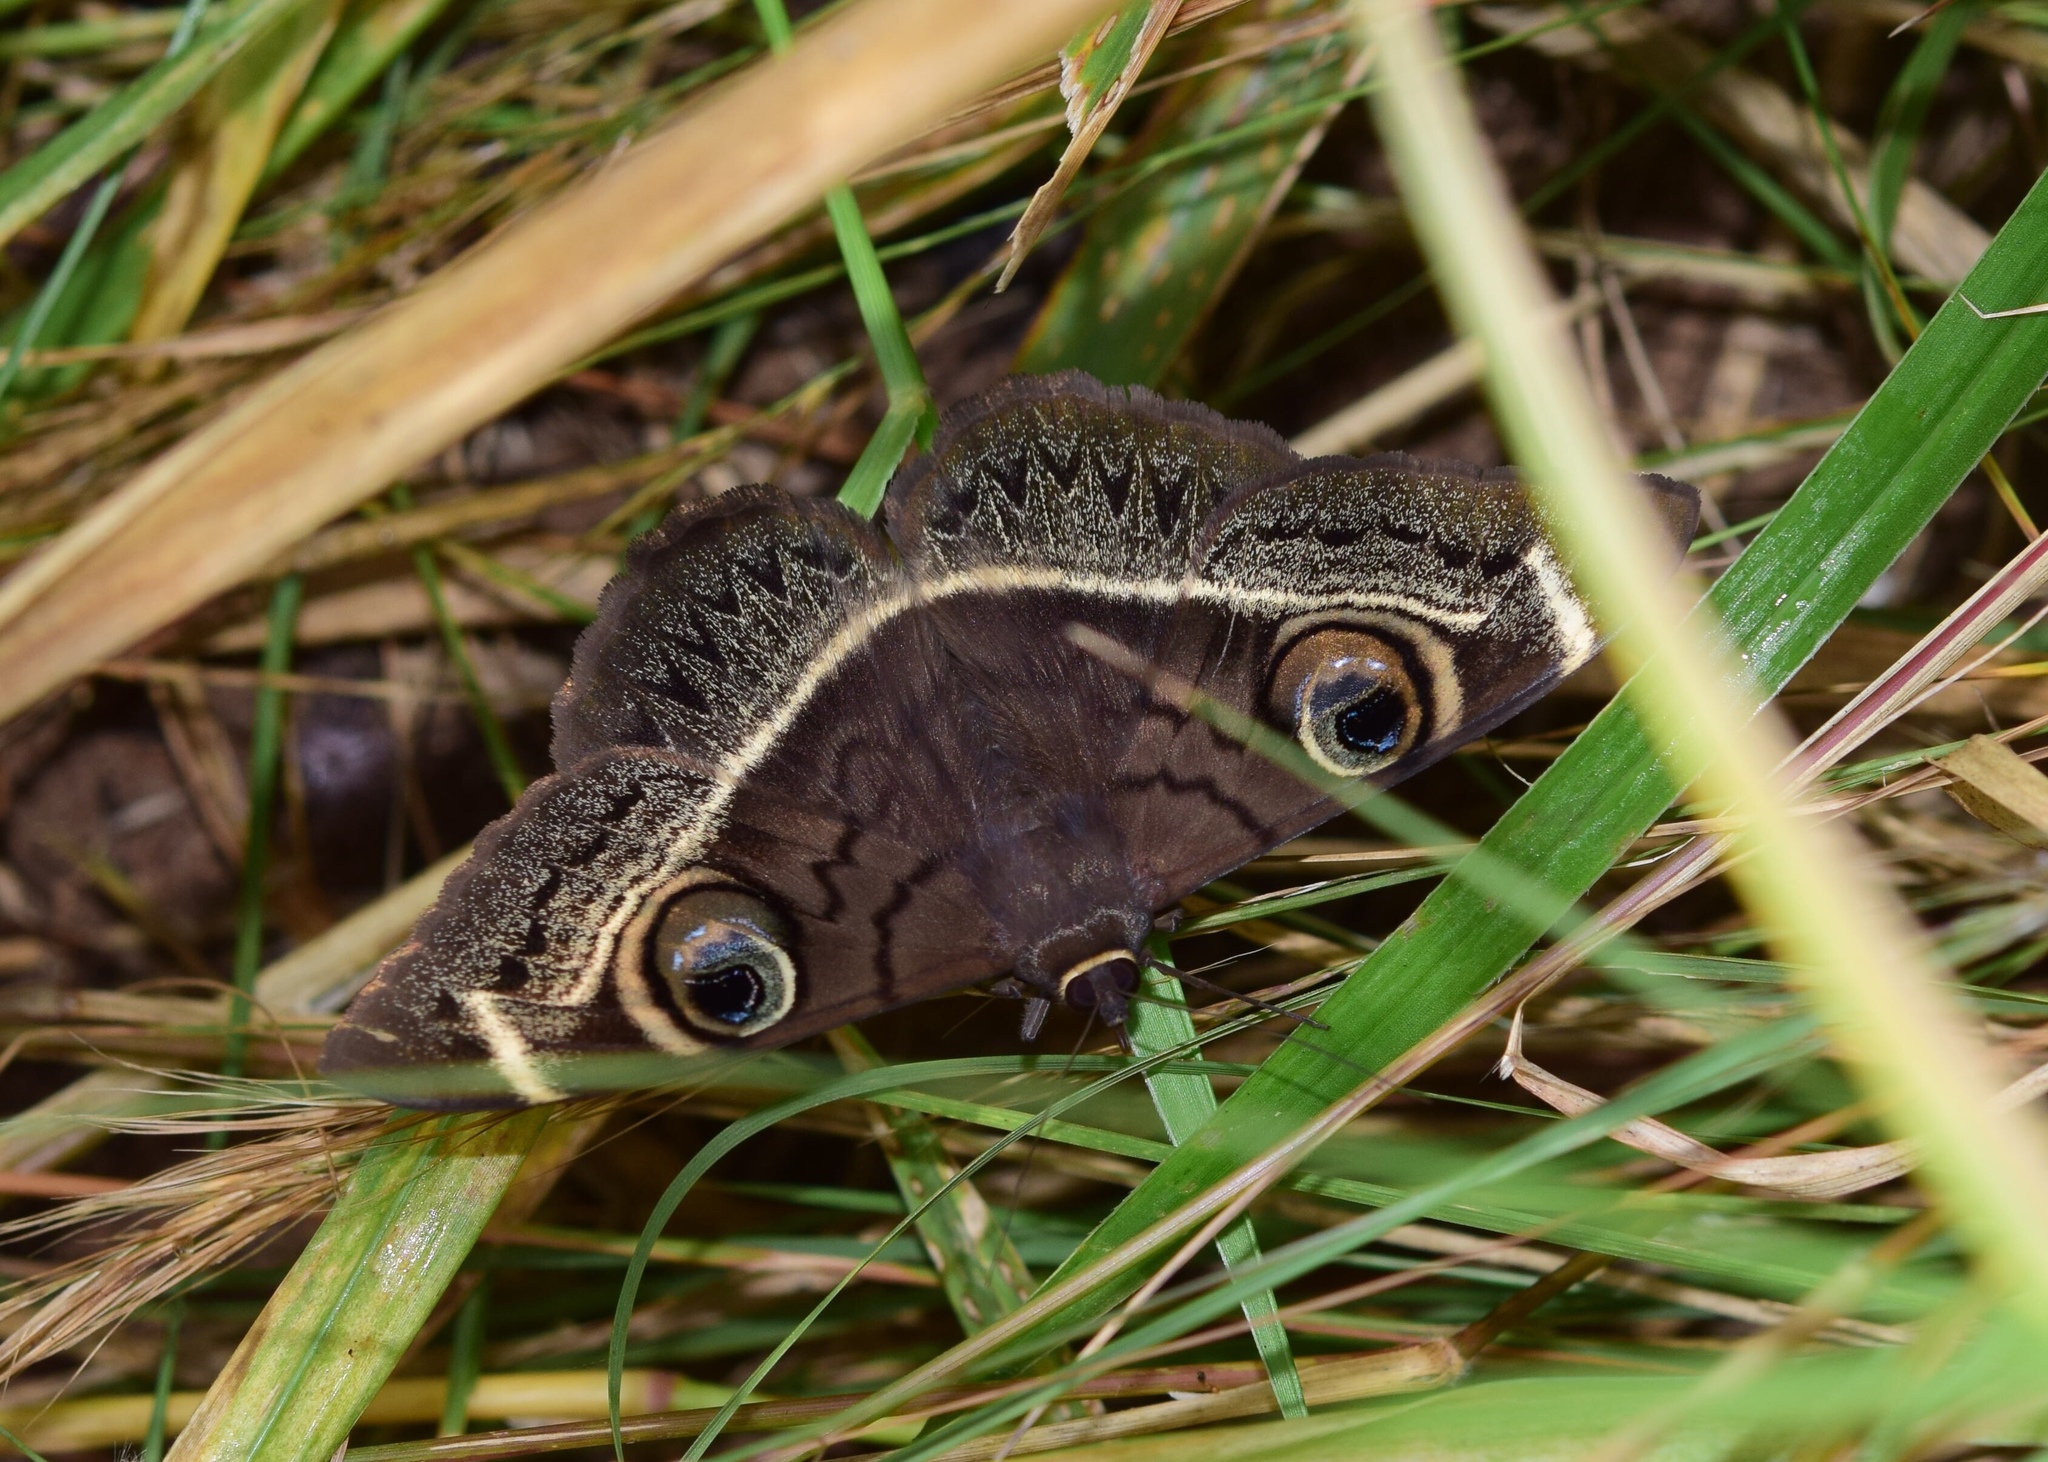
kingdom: Animalia
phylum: Arthropoda
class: Insecta
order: Lepidoptera
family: Erebidae
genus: Cyligramma
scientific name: Cyligramma latona
